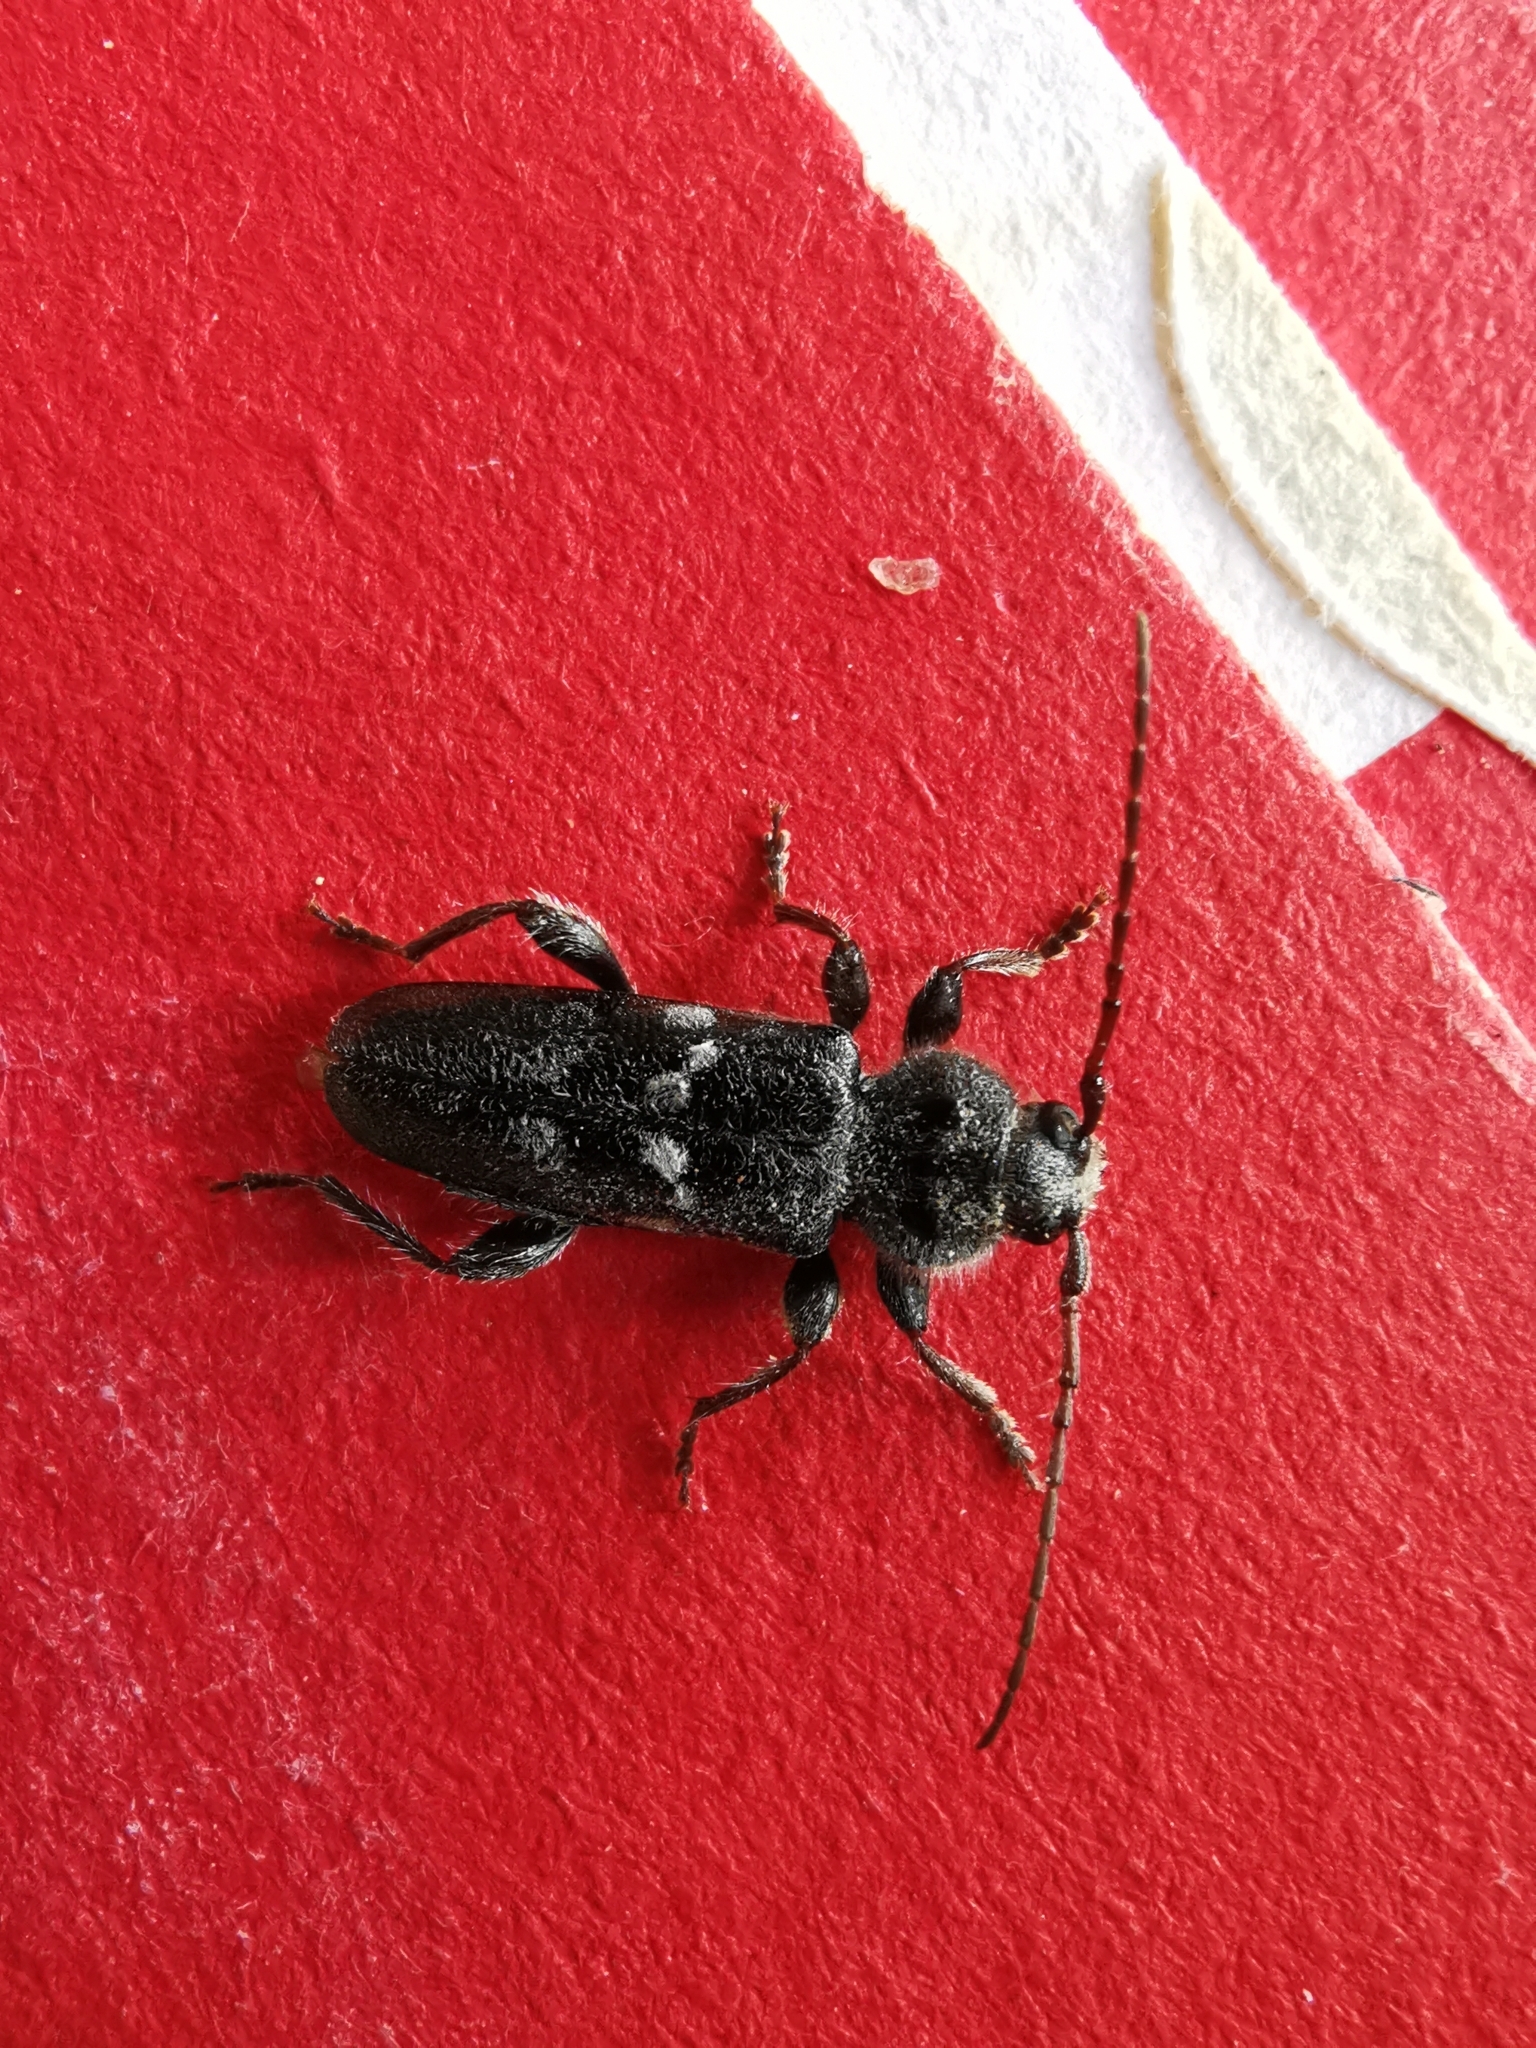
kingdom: Animalia
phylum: Arthropoda
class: Insecta
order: Coleoptera
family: Cerambycidae
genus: Hylotrupes
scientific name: Hylotrupes bajulus
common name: Old house borer
